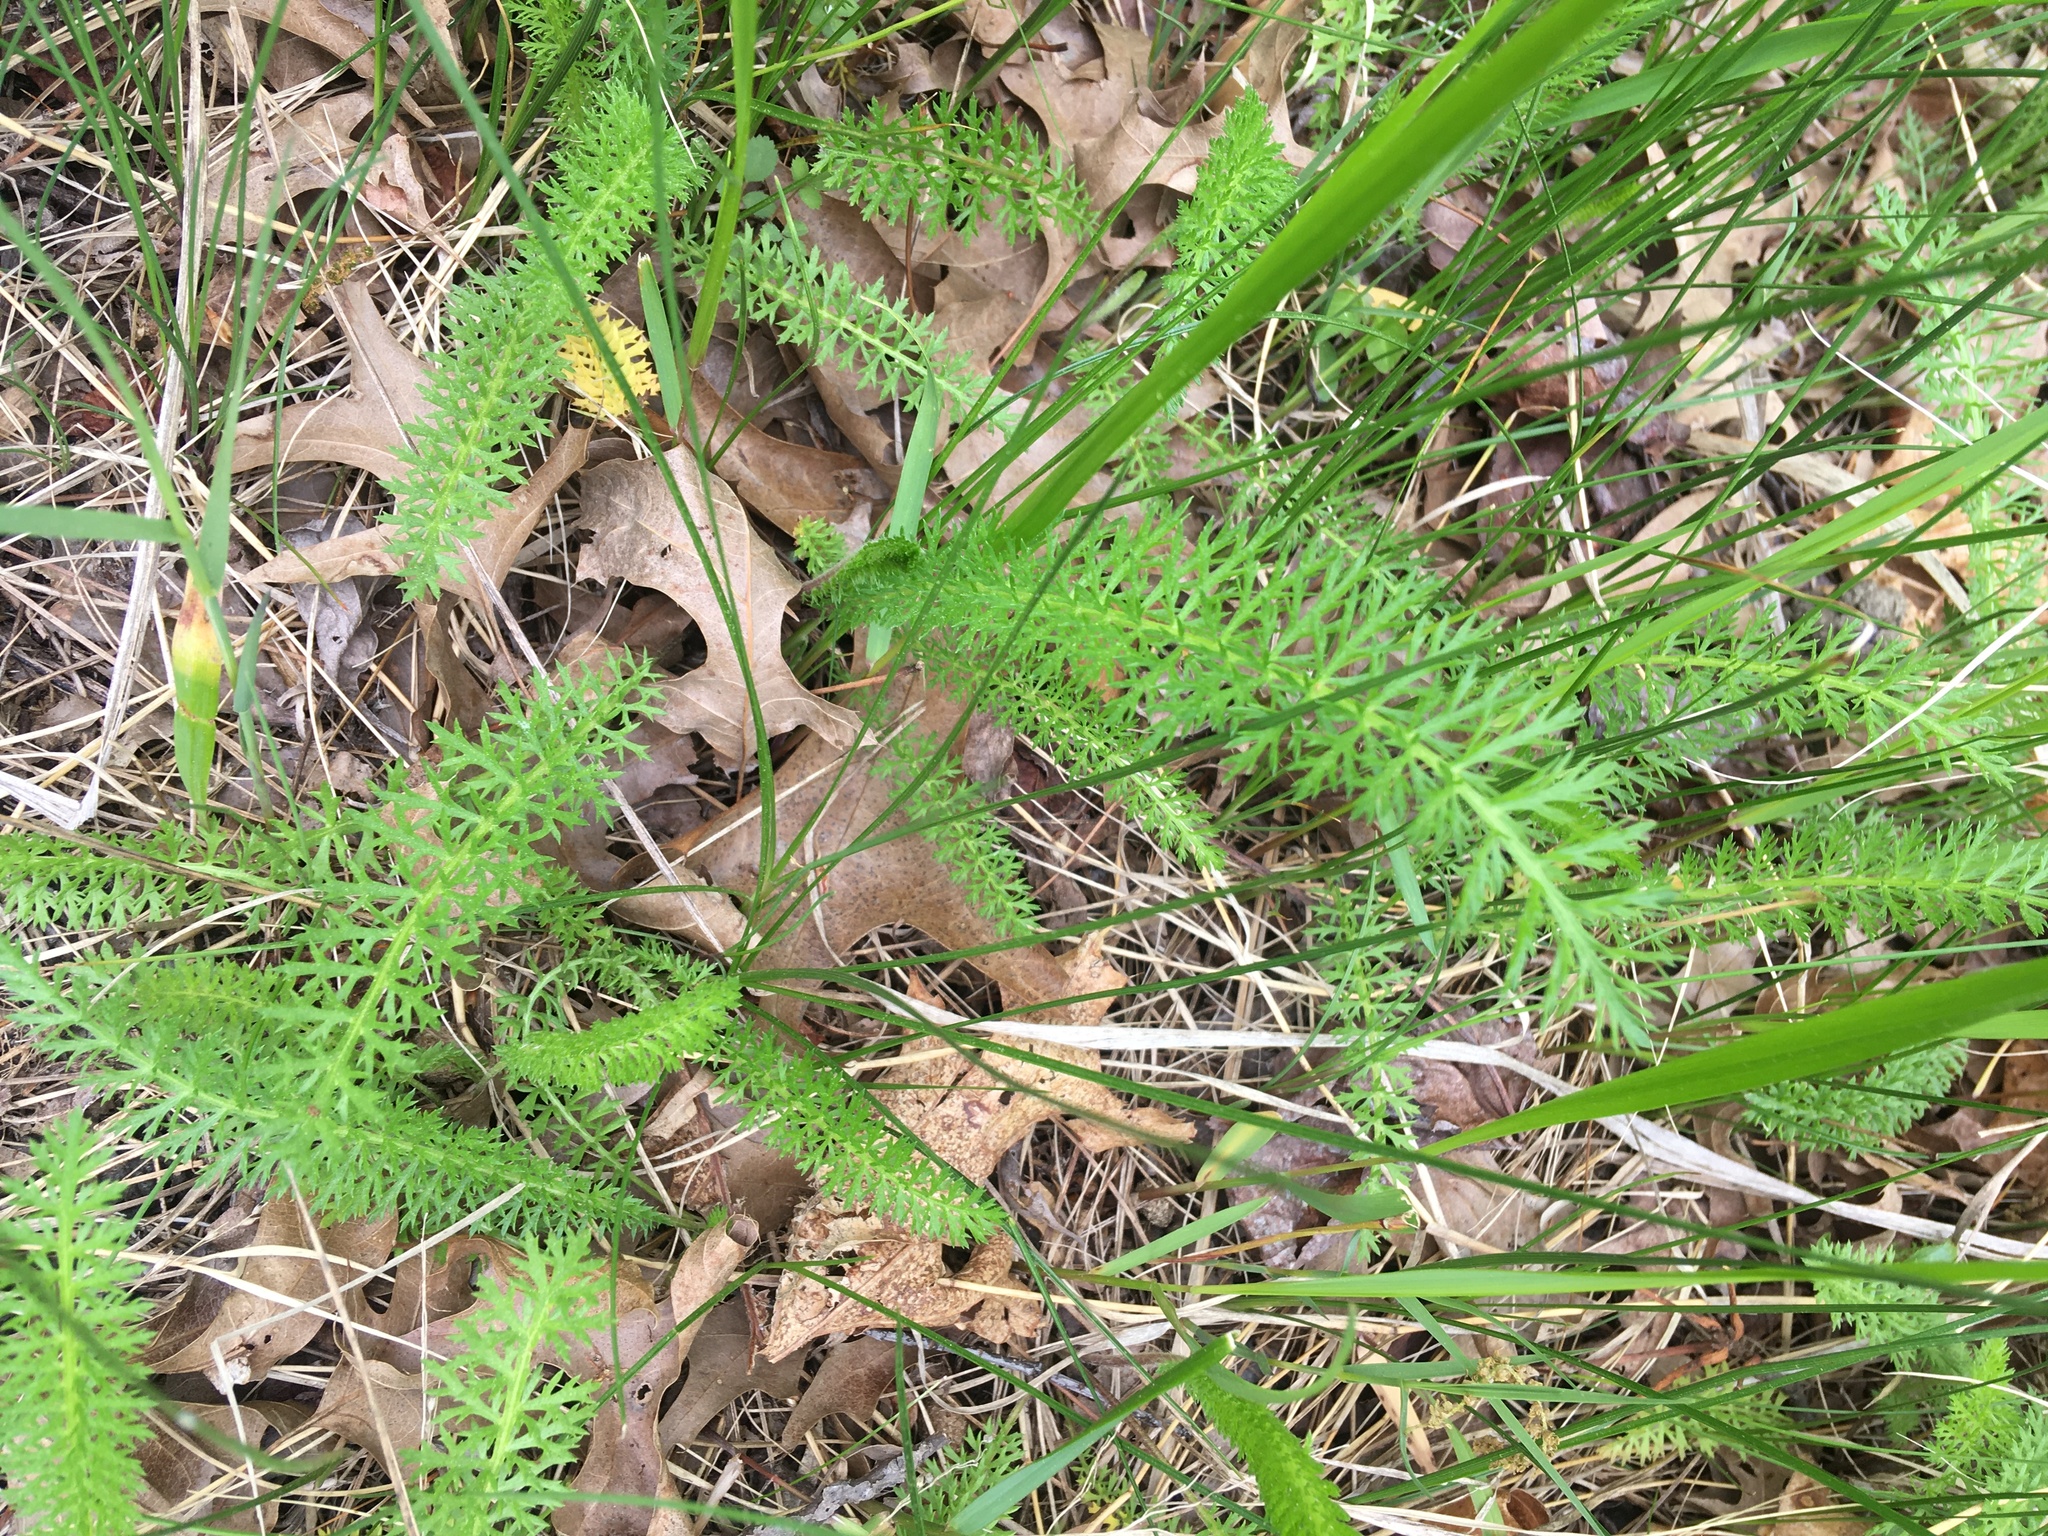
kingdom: Plantae
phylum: Tracheophyta
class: Magnoliopsida
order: Asterales
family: Asteraceae
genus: Achillea
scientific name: Achillea millefolium
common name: Yarrow
